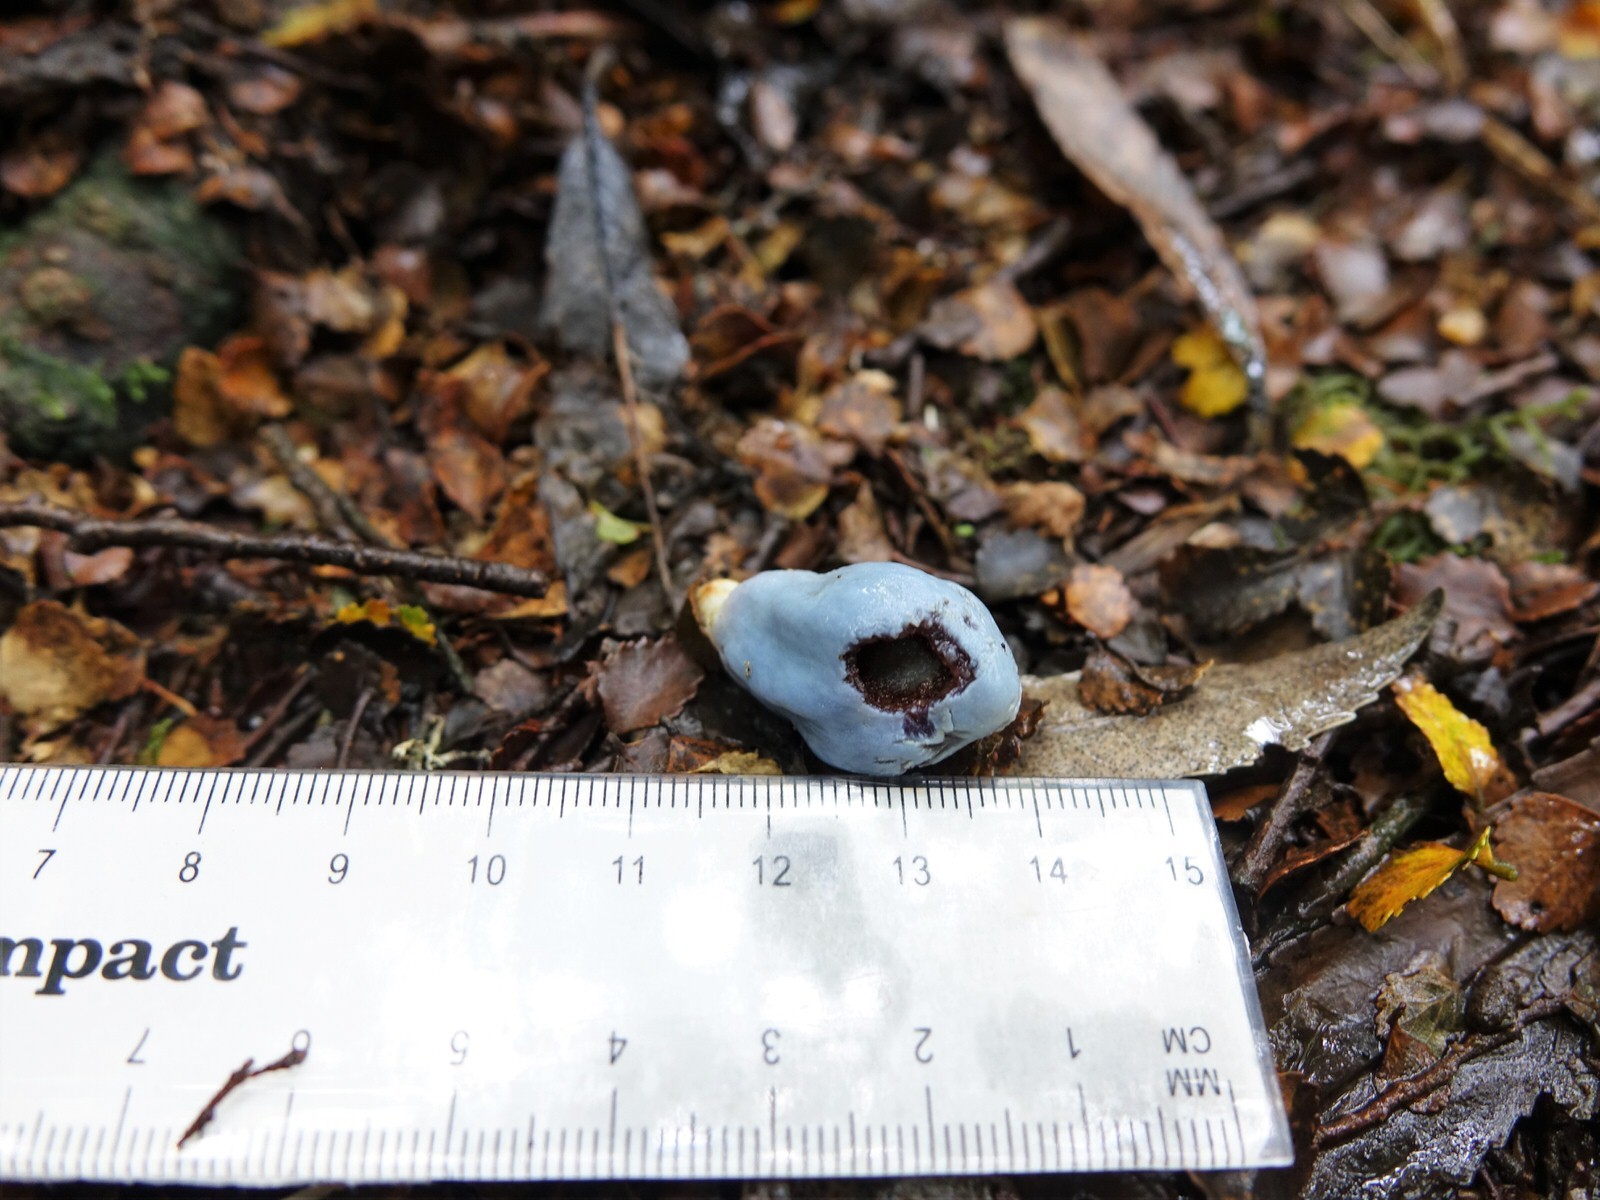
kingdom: Fungi
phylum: Basidiomycota
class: Agaricomycetes
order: Agaricales
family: Agaricaceae
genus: Clavogaster
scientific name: Clavogaster virescens
